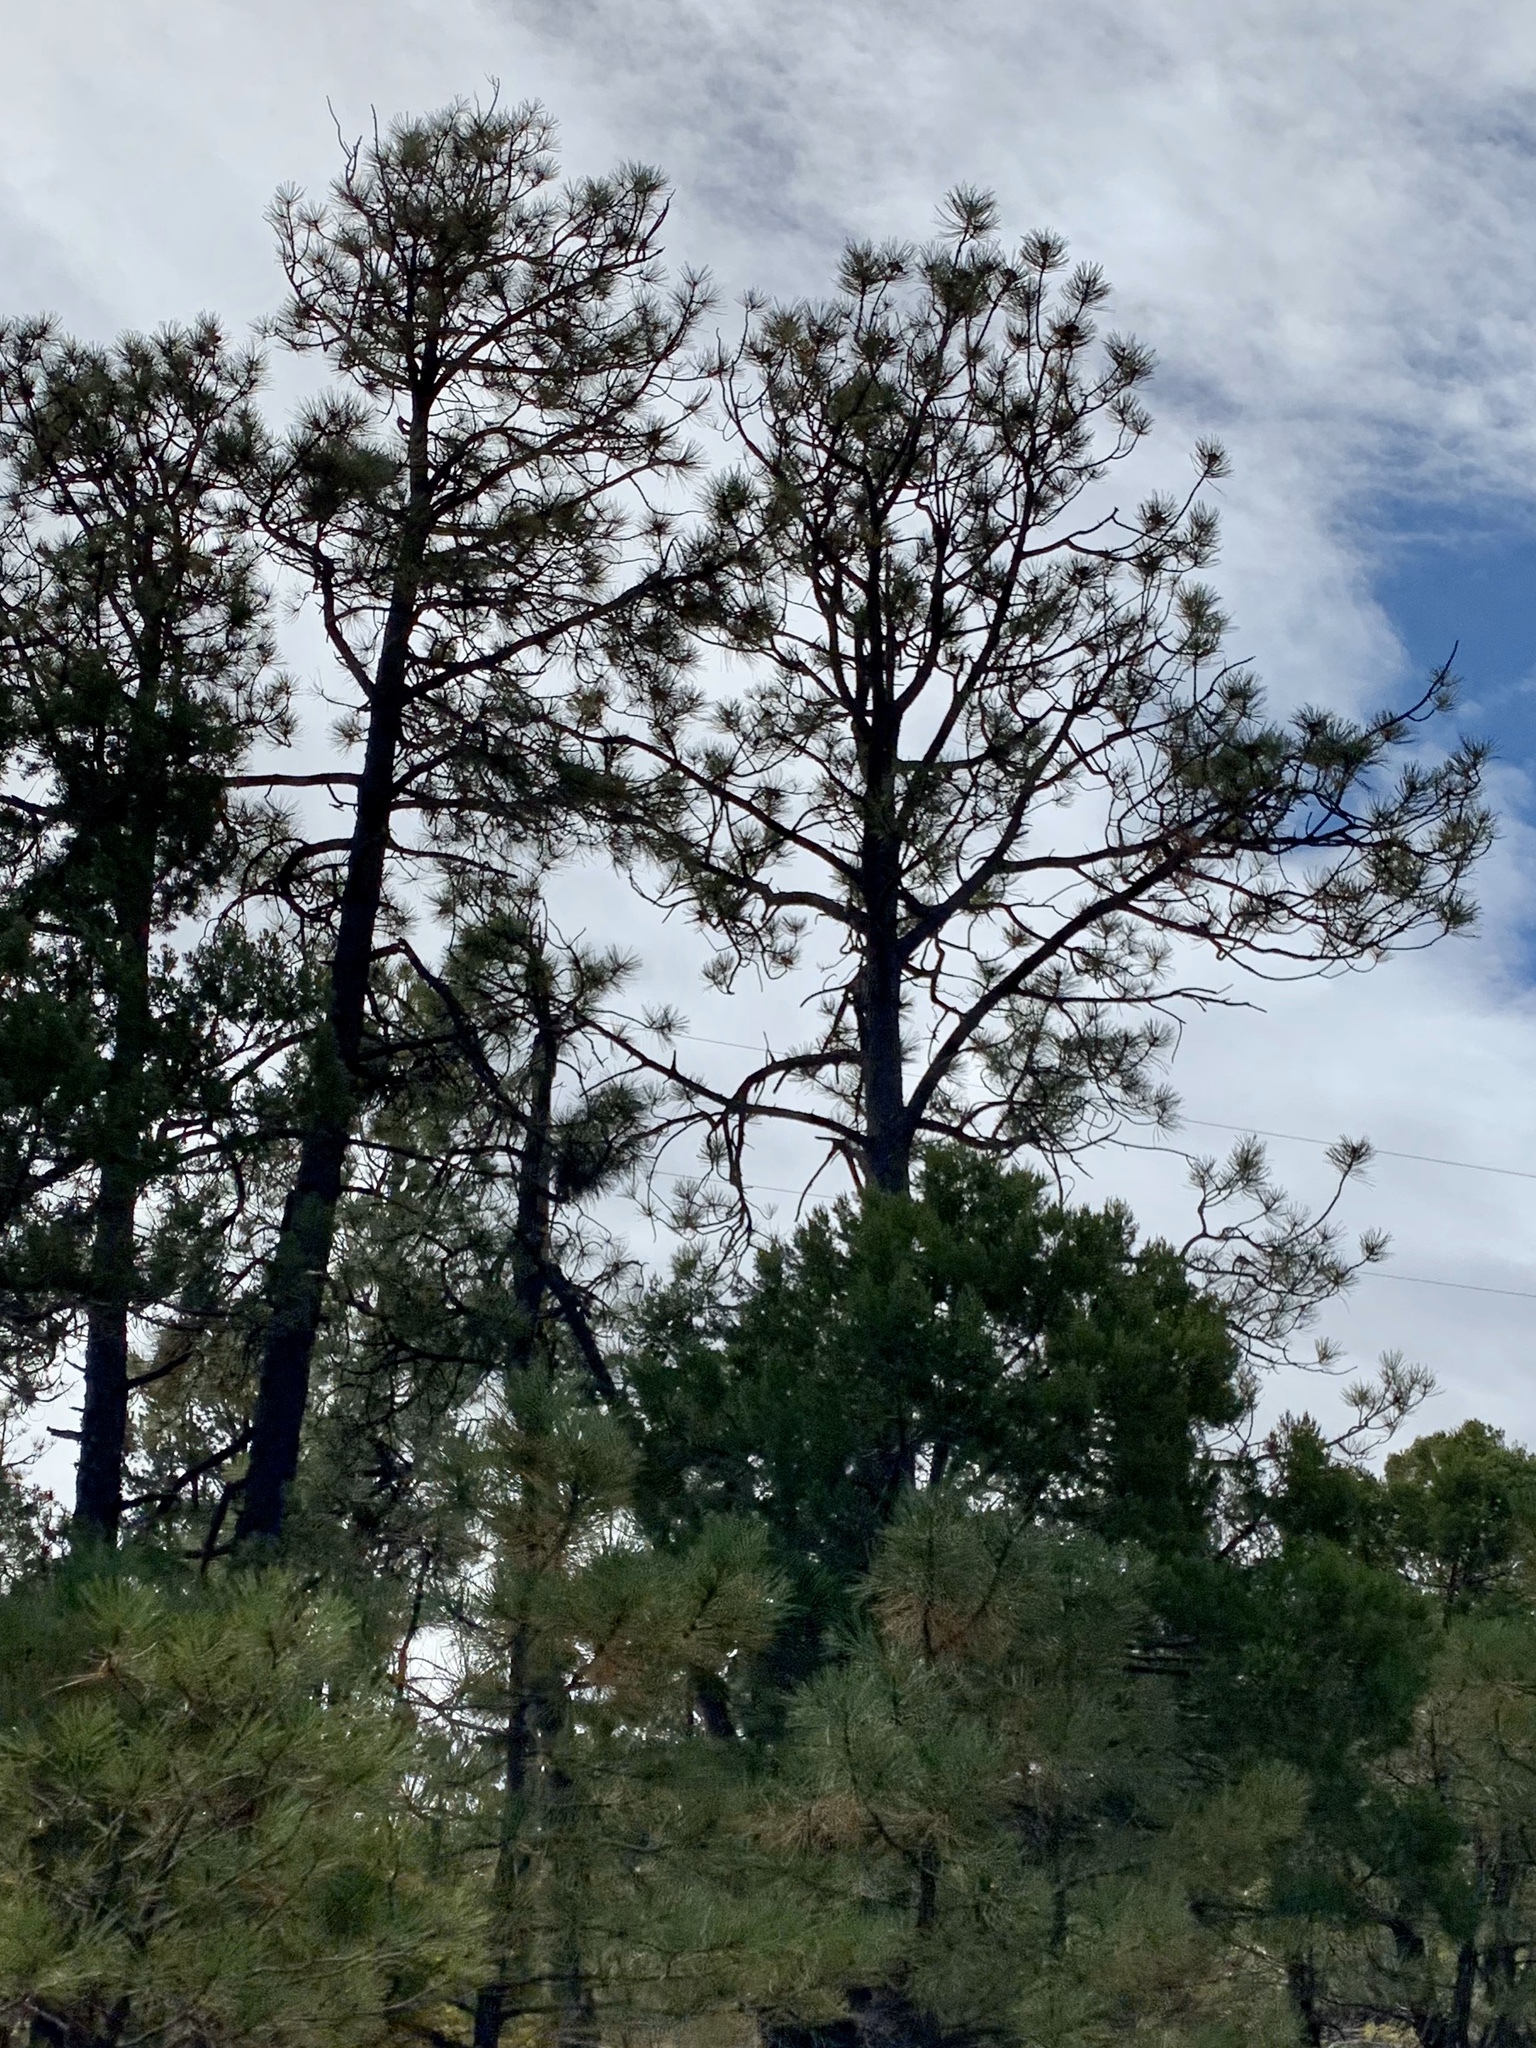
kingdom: Plantae
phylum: Tracheophyta
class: Pinopsida
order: Pinales
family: Pinaceae
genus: Pinus
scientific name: Pinus ponderosa
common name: Western yellow-pine
